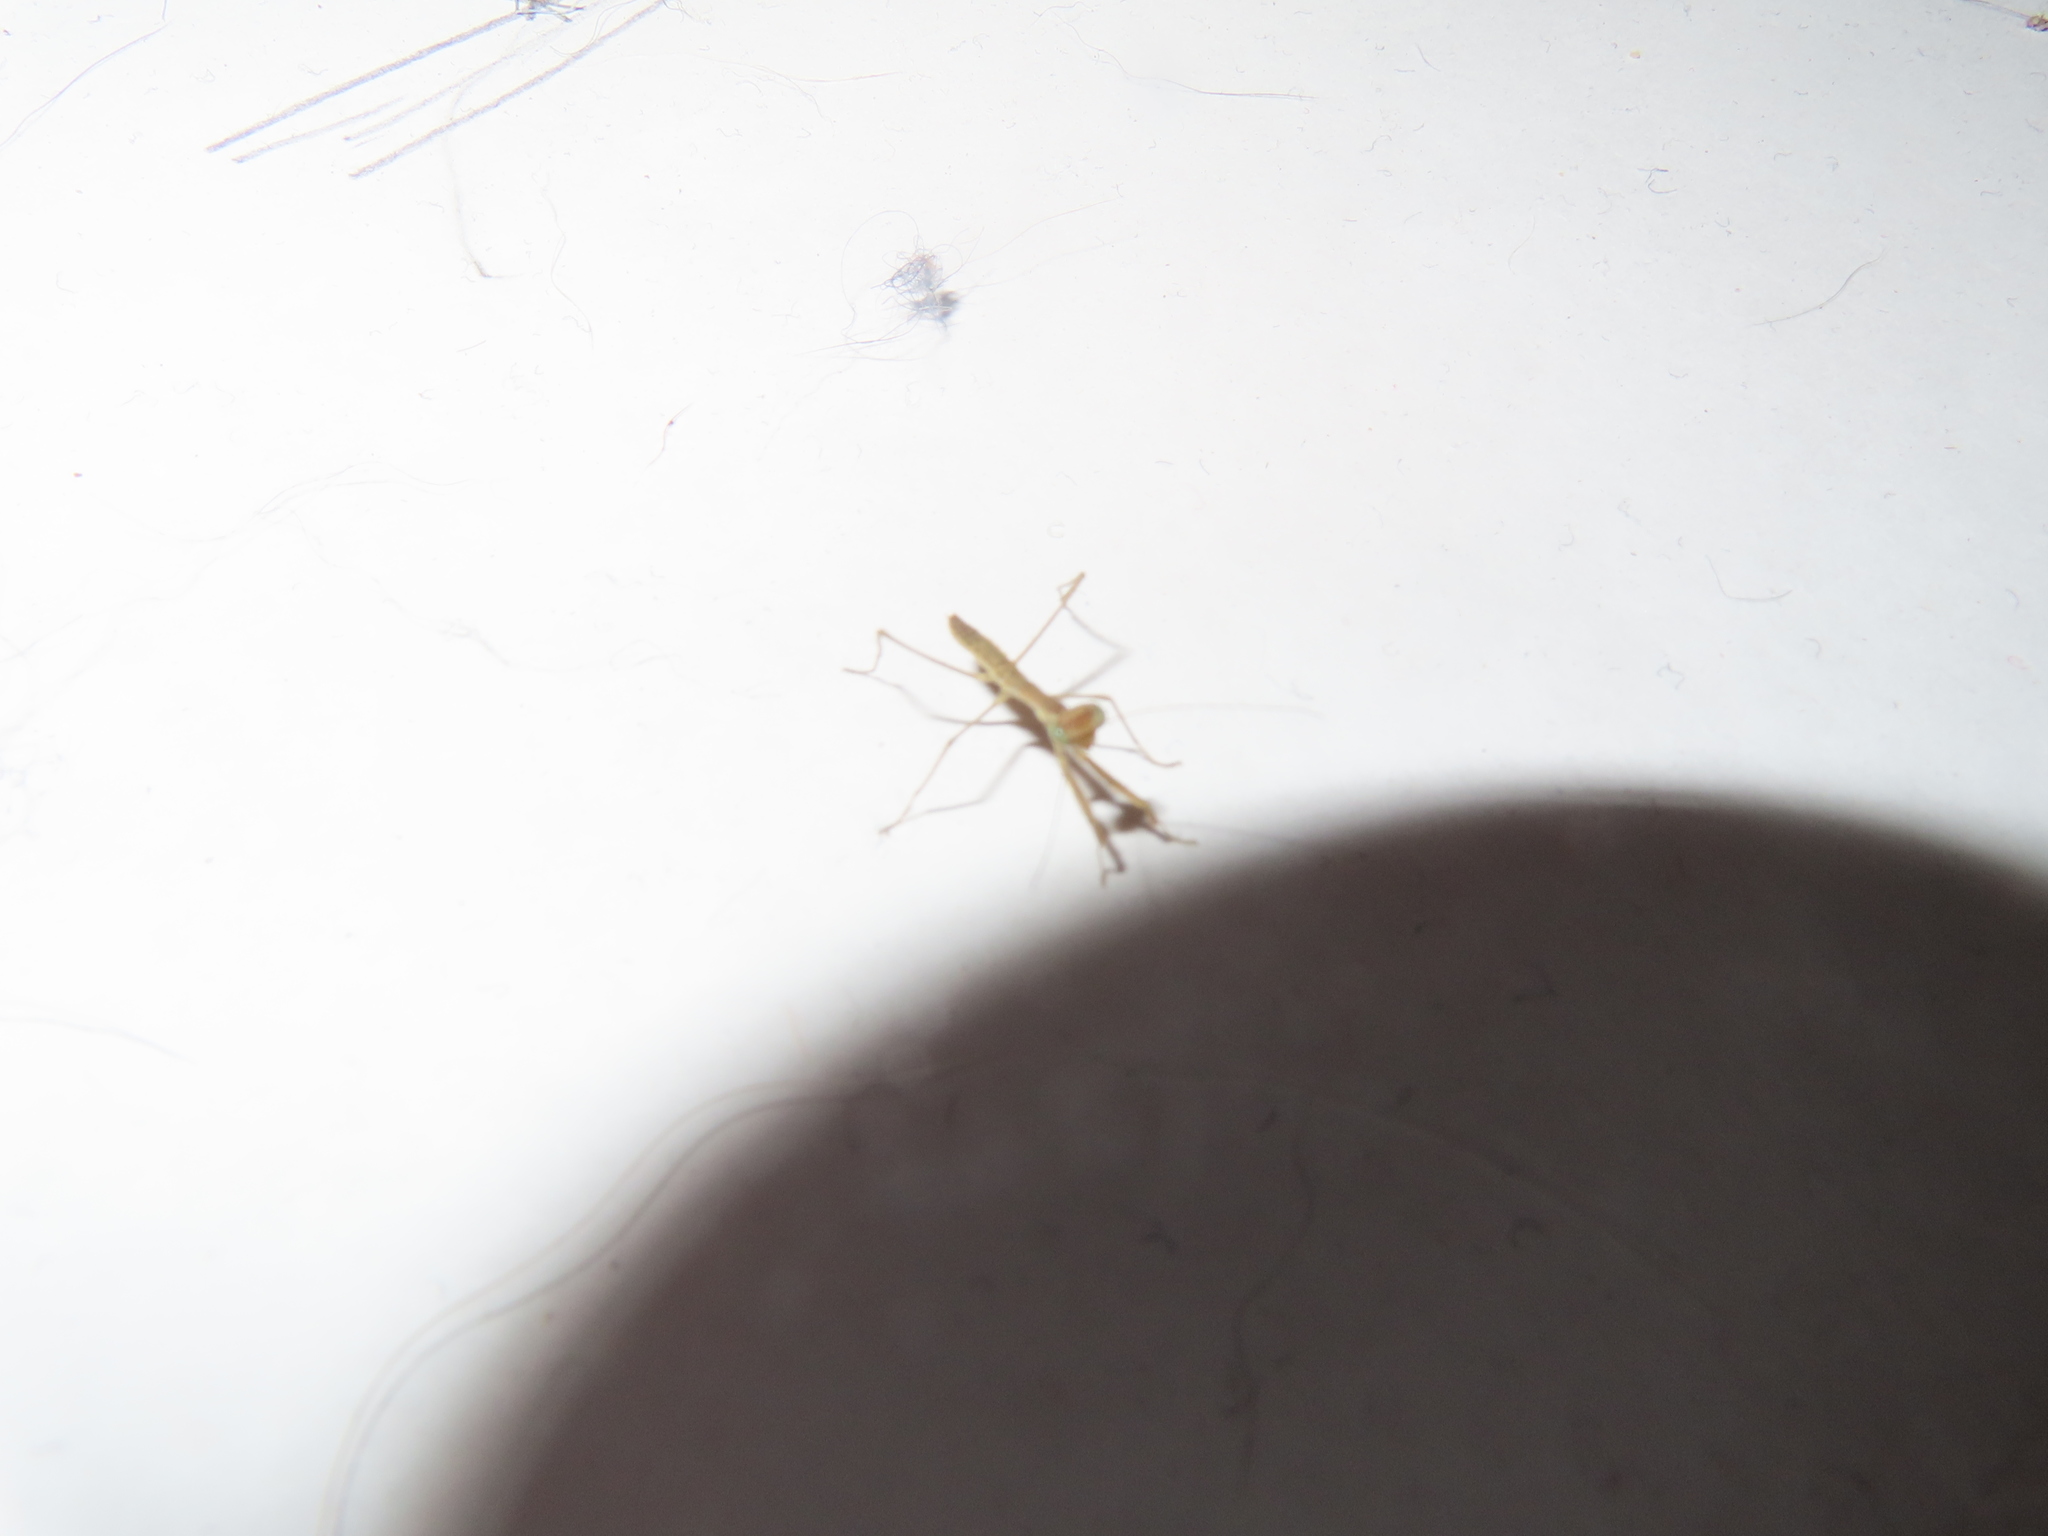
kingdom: Animalia
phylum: Arthropoda
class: Insecta
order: Mantodea
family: Mantidae
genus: Tenodera
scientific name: Tenodera sinensis
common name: Chinese mantis
